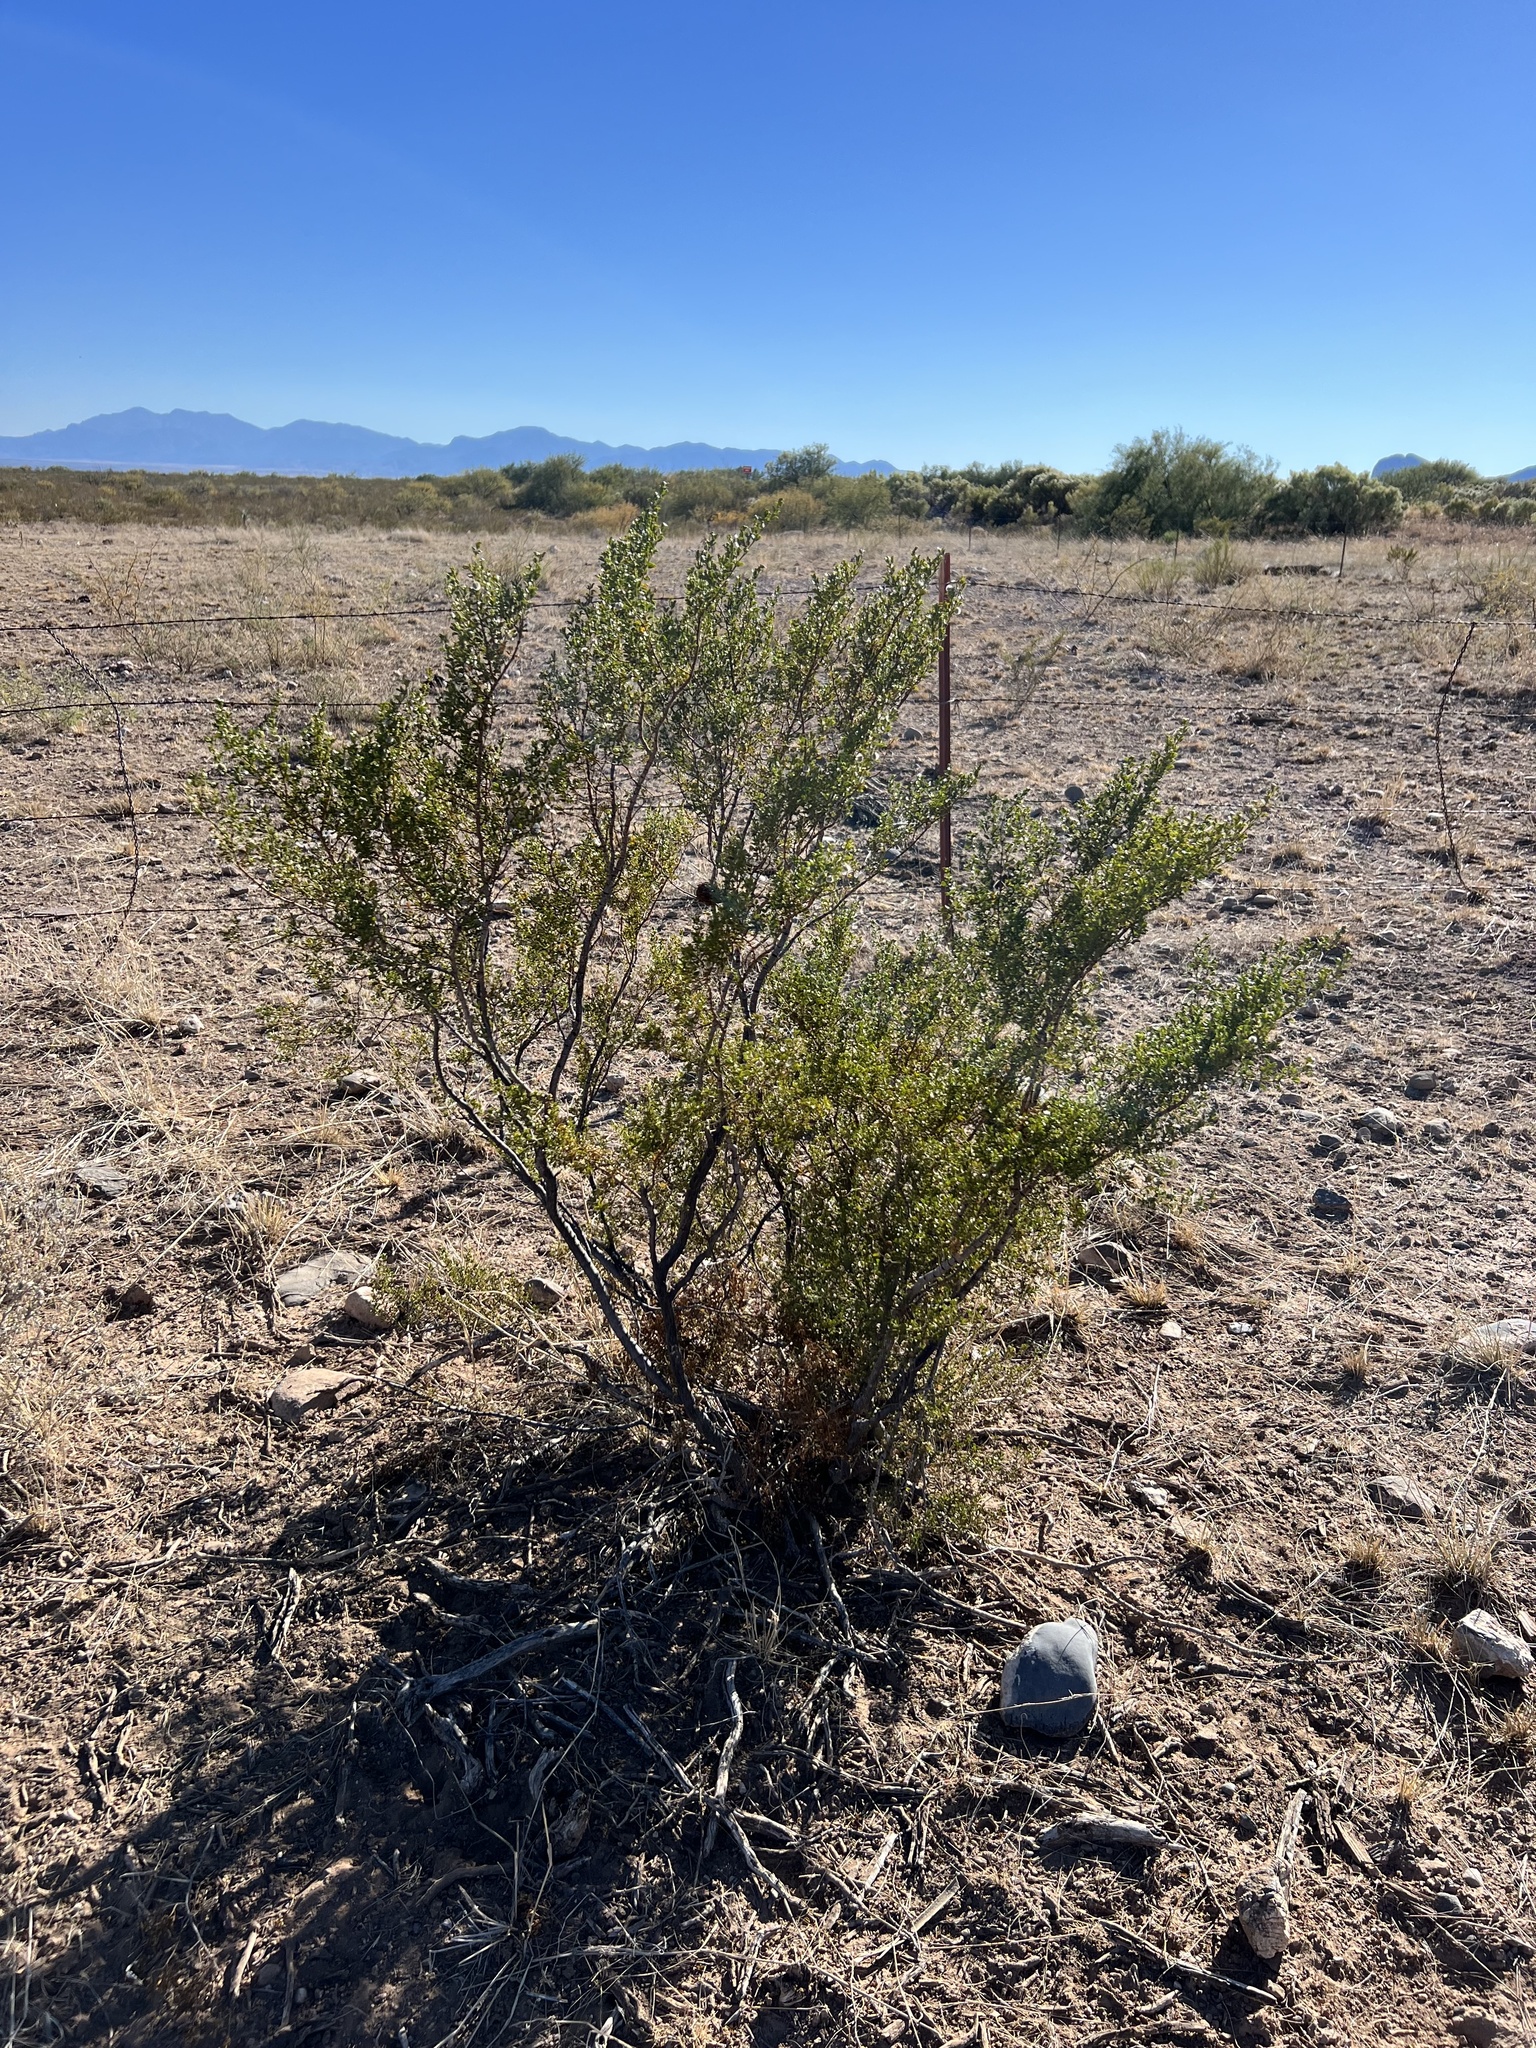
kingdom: Plantae
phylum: Tracheophyta
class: Magnoliopsida
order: Zygophyllales
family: Zygophyllaceae
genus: Larrea
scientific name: Larrea tridentata
